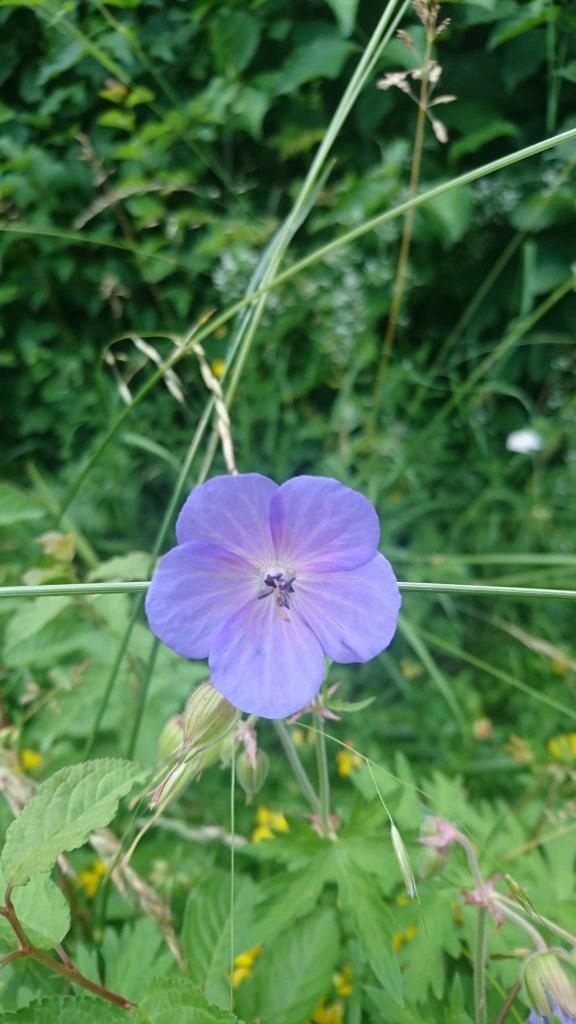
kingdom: Plantae
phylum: Tracheophyta
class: Magnoliopsida
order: Geraniales
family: Geraniaceae
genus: Geranium
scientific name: Geranium pratense
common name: Meadow crane's-bill
